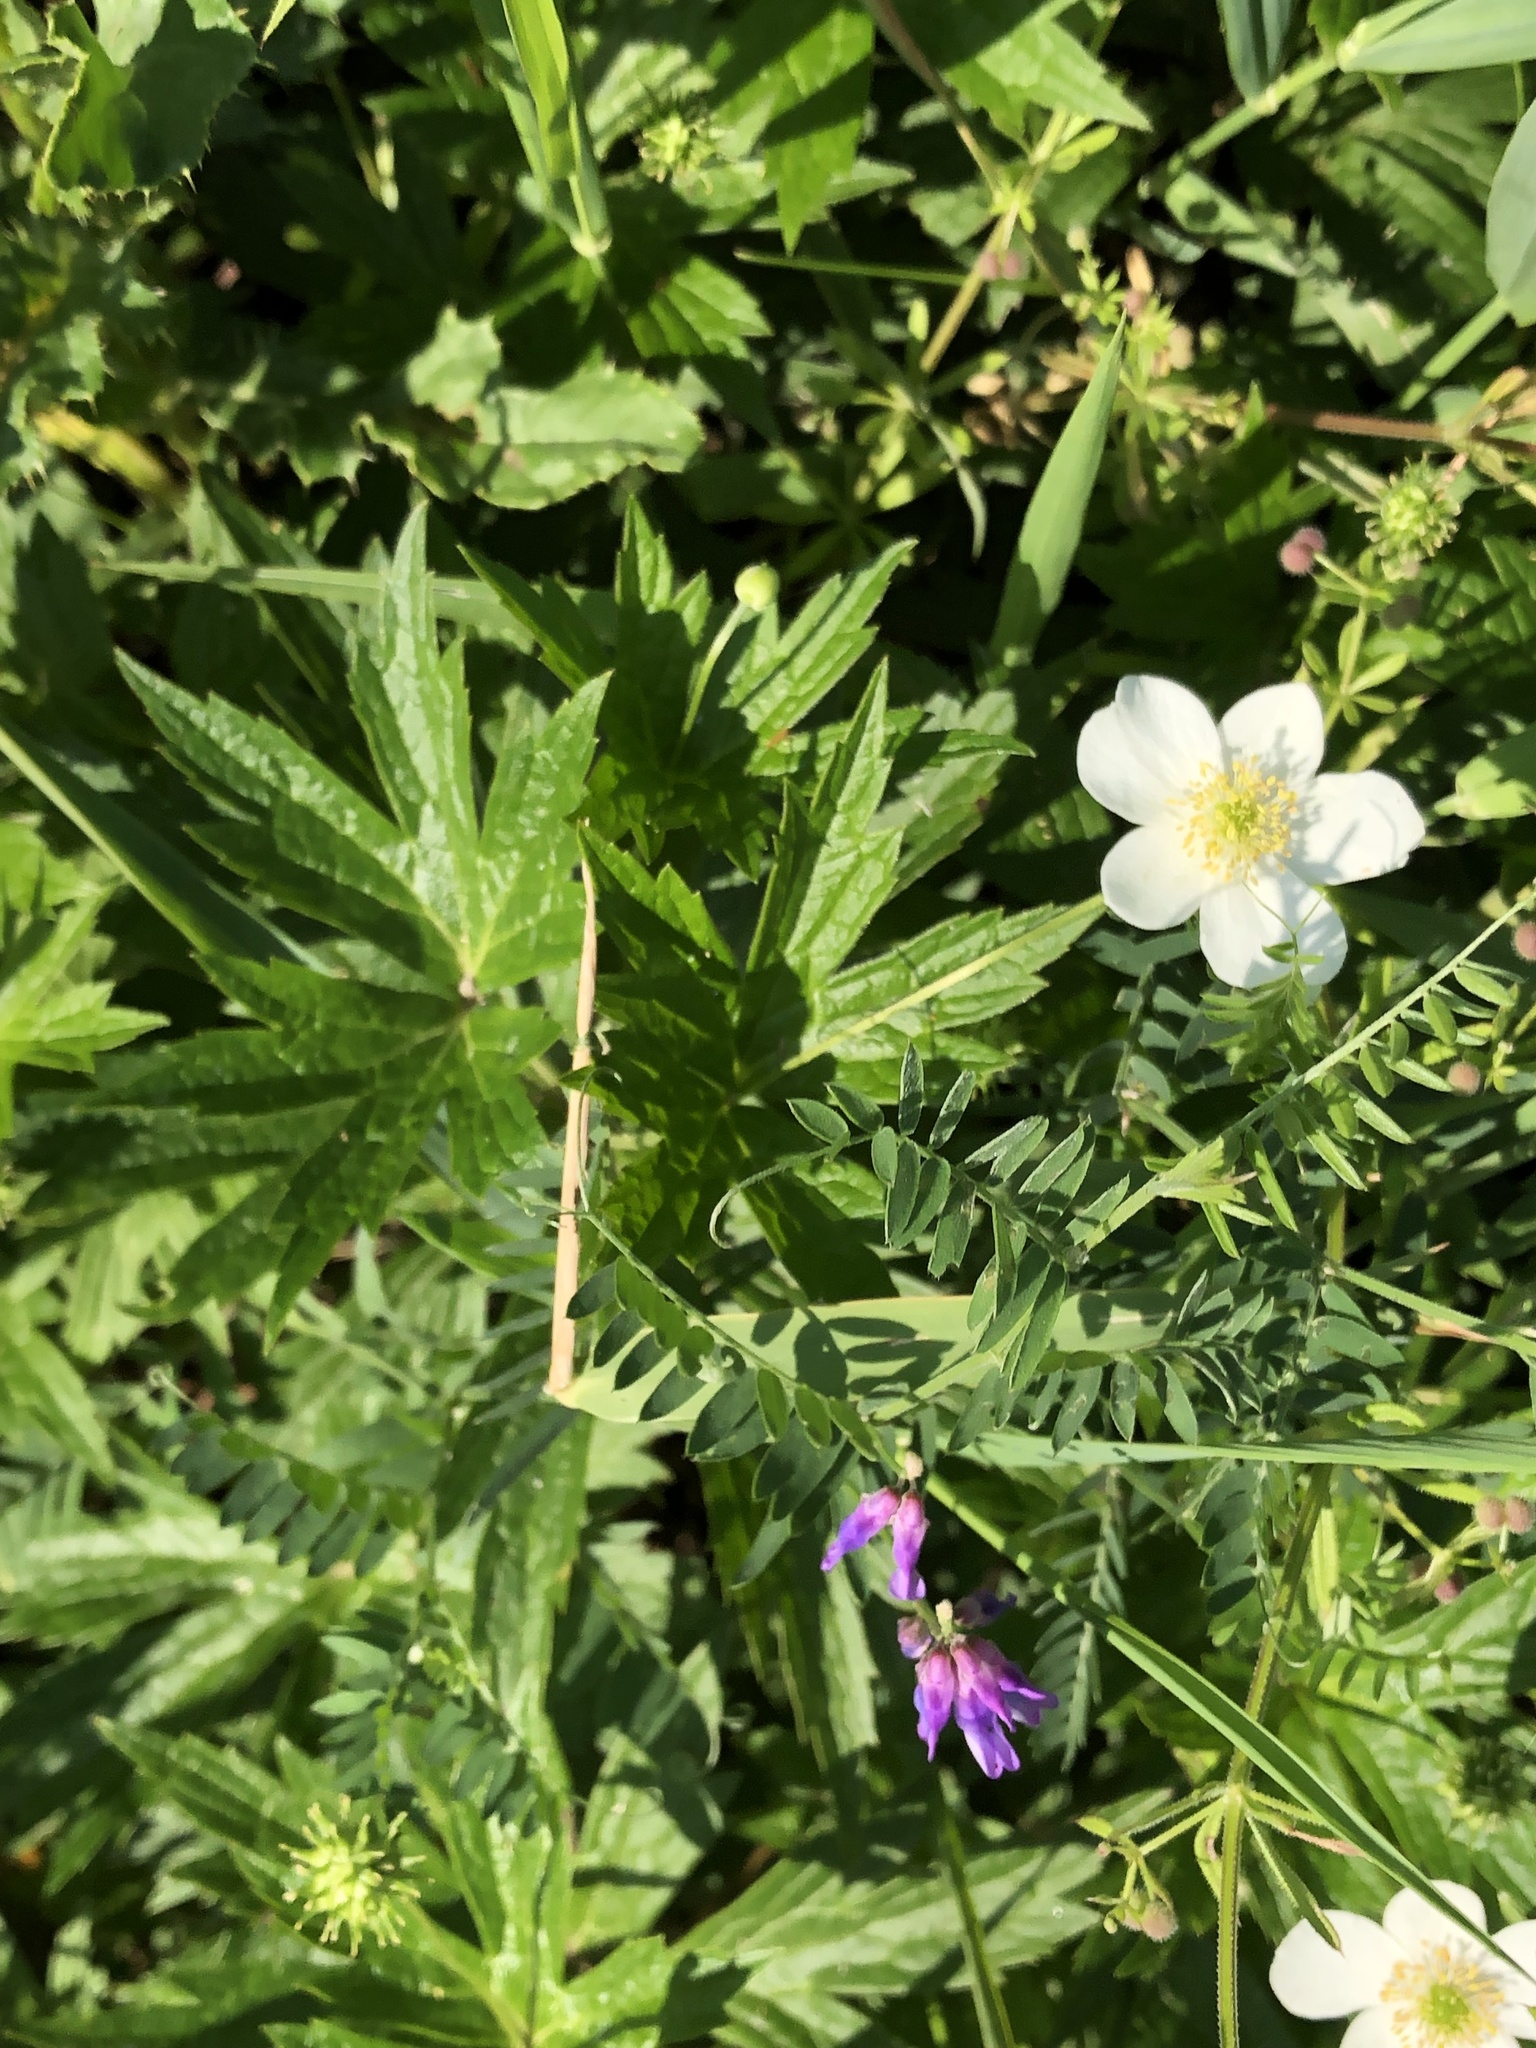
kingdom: Plantae
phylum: Tracheophyta
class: Magnoliopsida
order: Ranunculales
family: Ranunculaceae
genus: Anemonastrum
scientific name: Anemonastrum canadense
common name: Canada anemone
